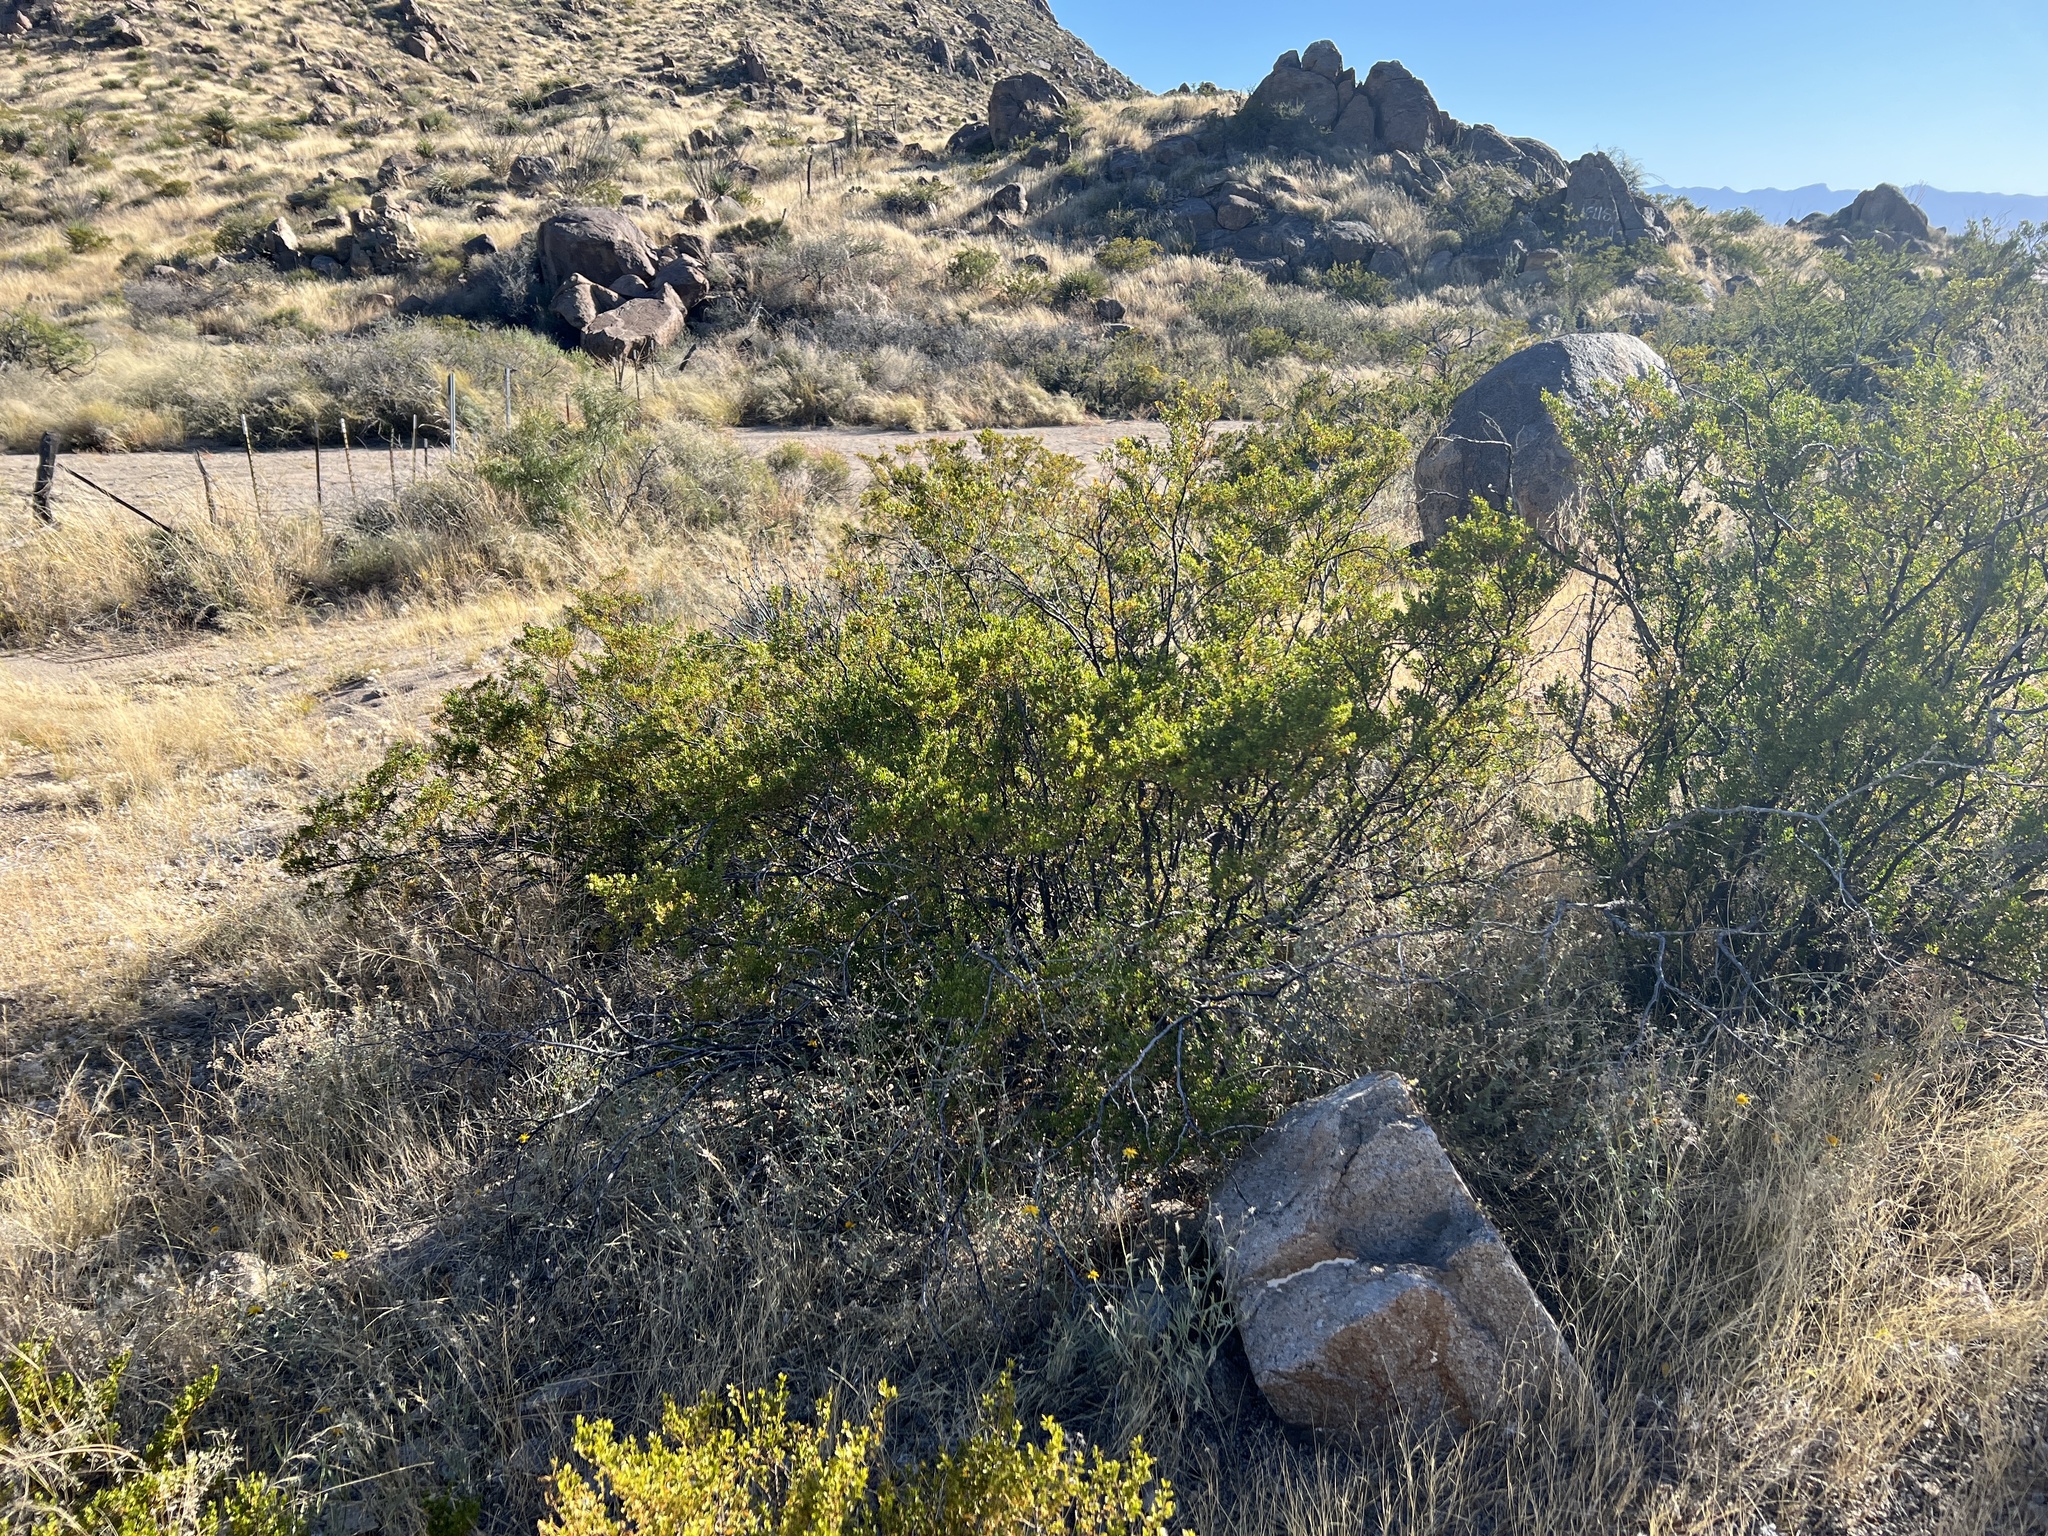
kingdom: Plantae
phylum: Tracheophyta
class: Magnoliopsida
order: Zygophyllales
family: Zygophyllaceae
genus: Larrea
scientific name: Larrea tridentata
